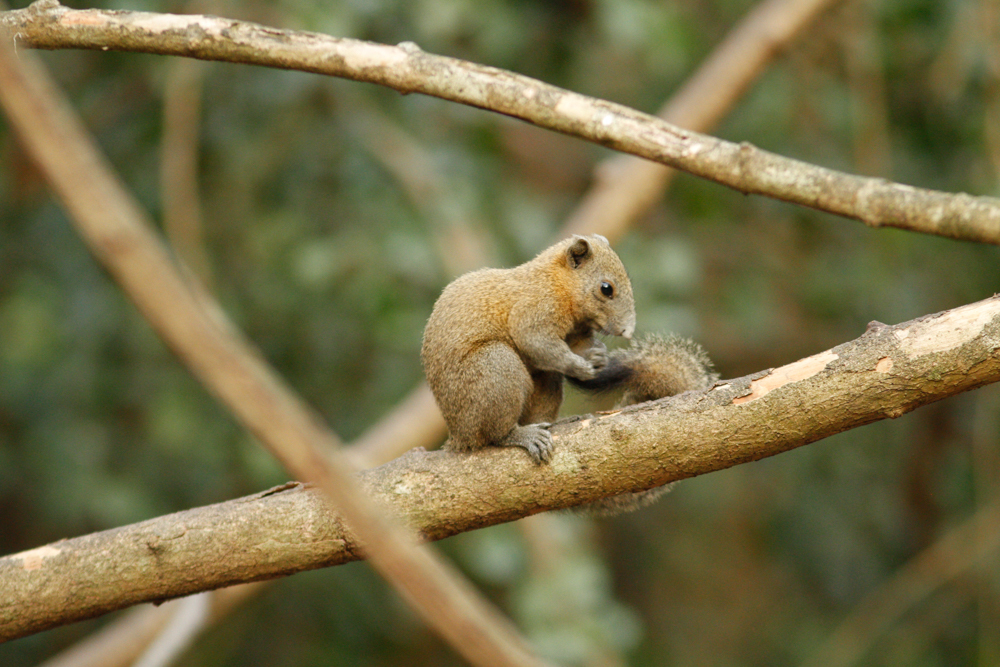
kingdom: Animalia
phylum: Chordata
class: Mammalia
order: Rodentia
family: Sciuridae
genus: Callosciurus
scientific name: Callosciurus caniceps
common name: Gray-bellied squirrel
